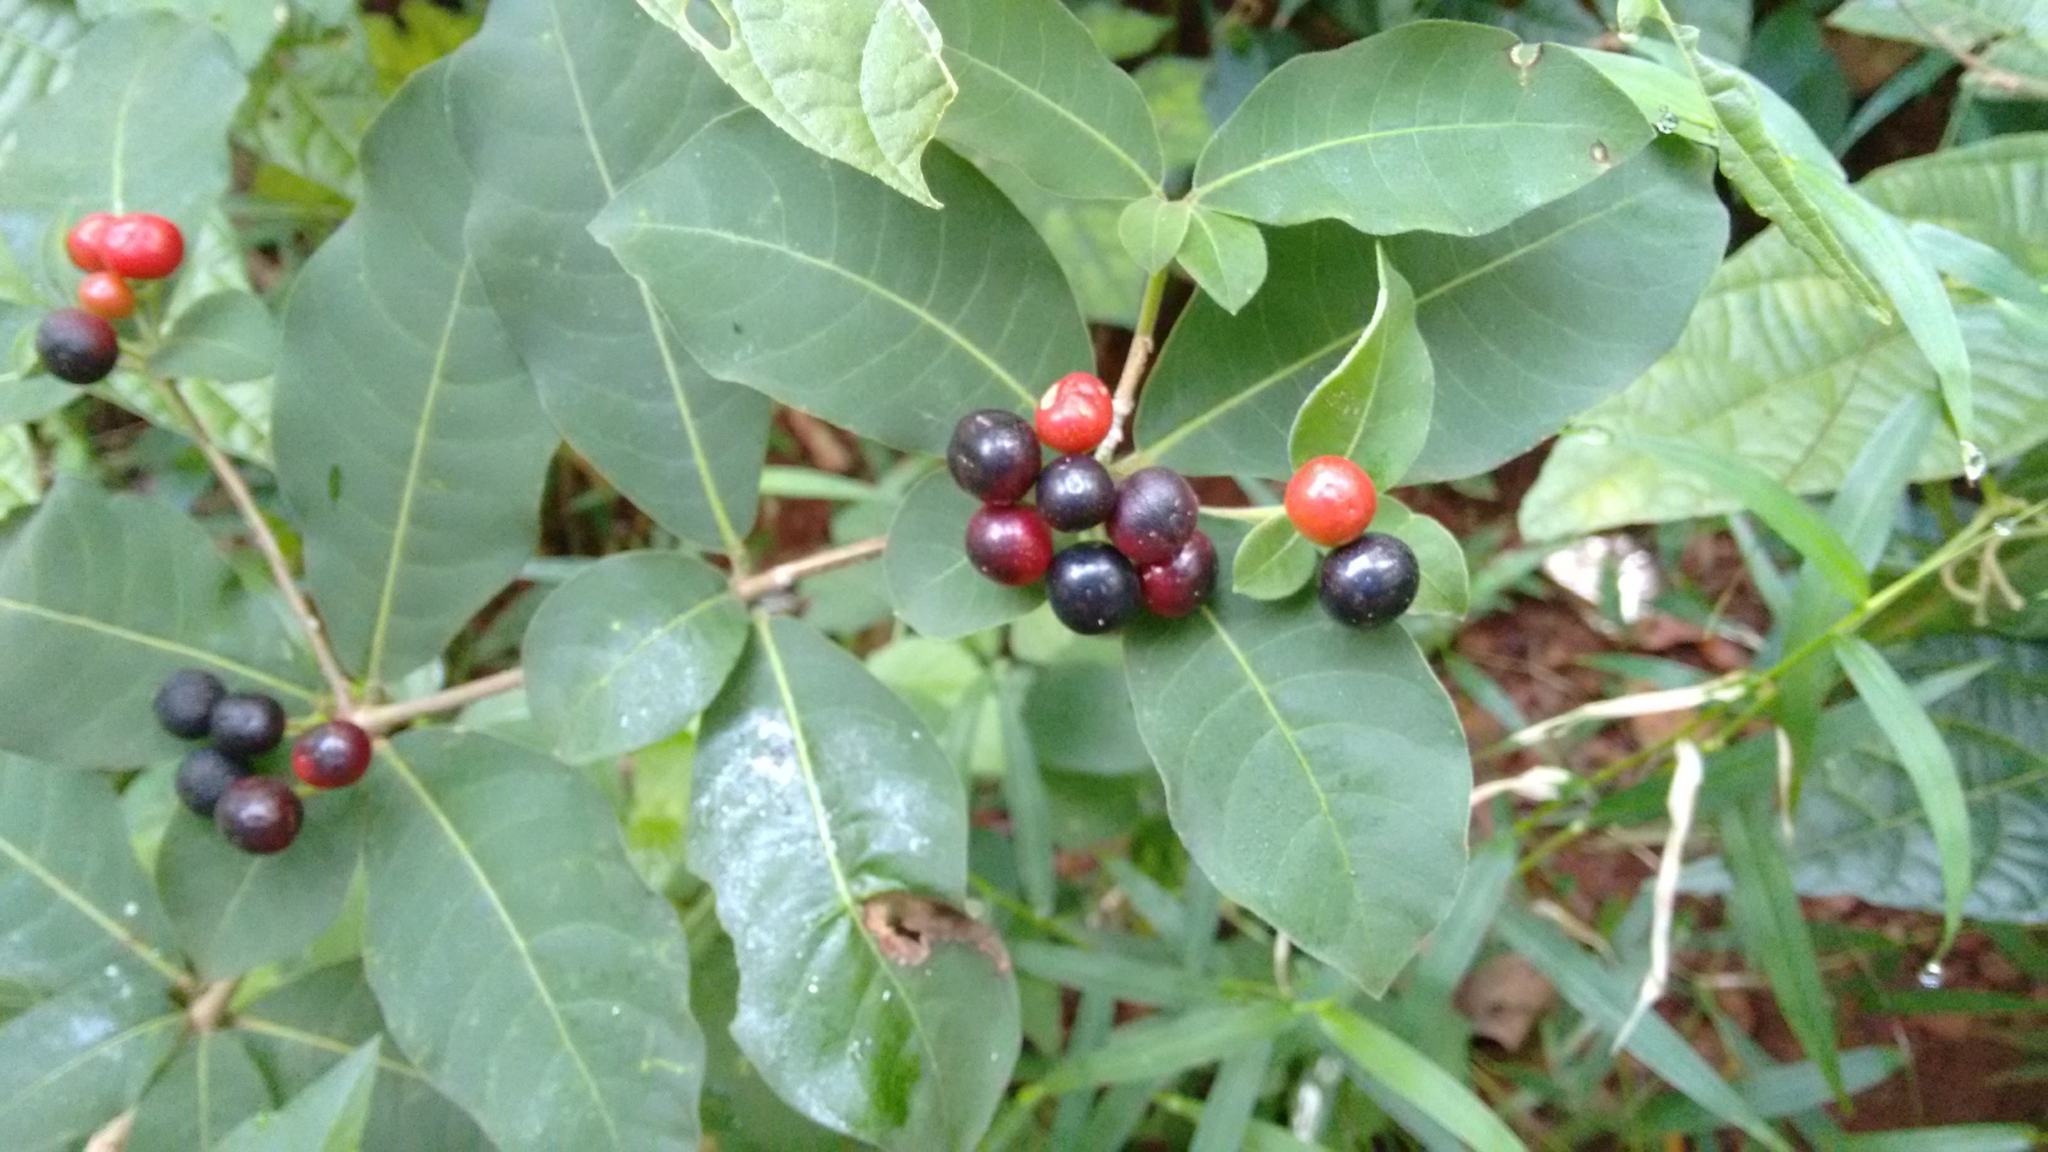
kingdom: Plantae
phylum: Tracheophyta
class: Magnoliopsida
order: Gentianales
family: Apocynaceae
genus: Rauvolfia
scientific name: Rauvolfia tetraphylla
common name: Four-leaf devil-pepper
